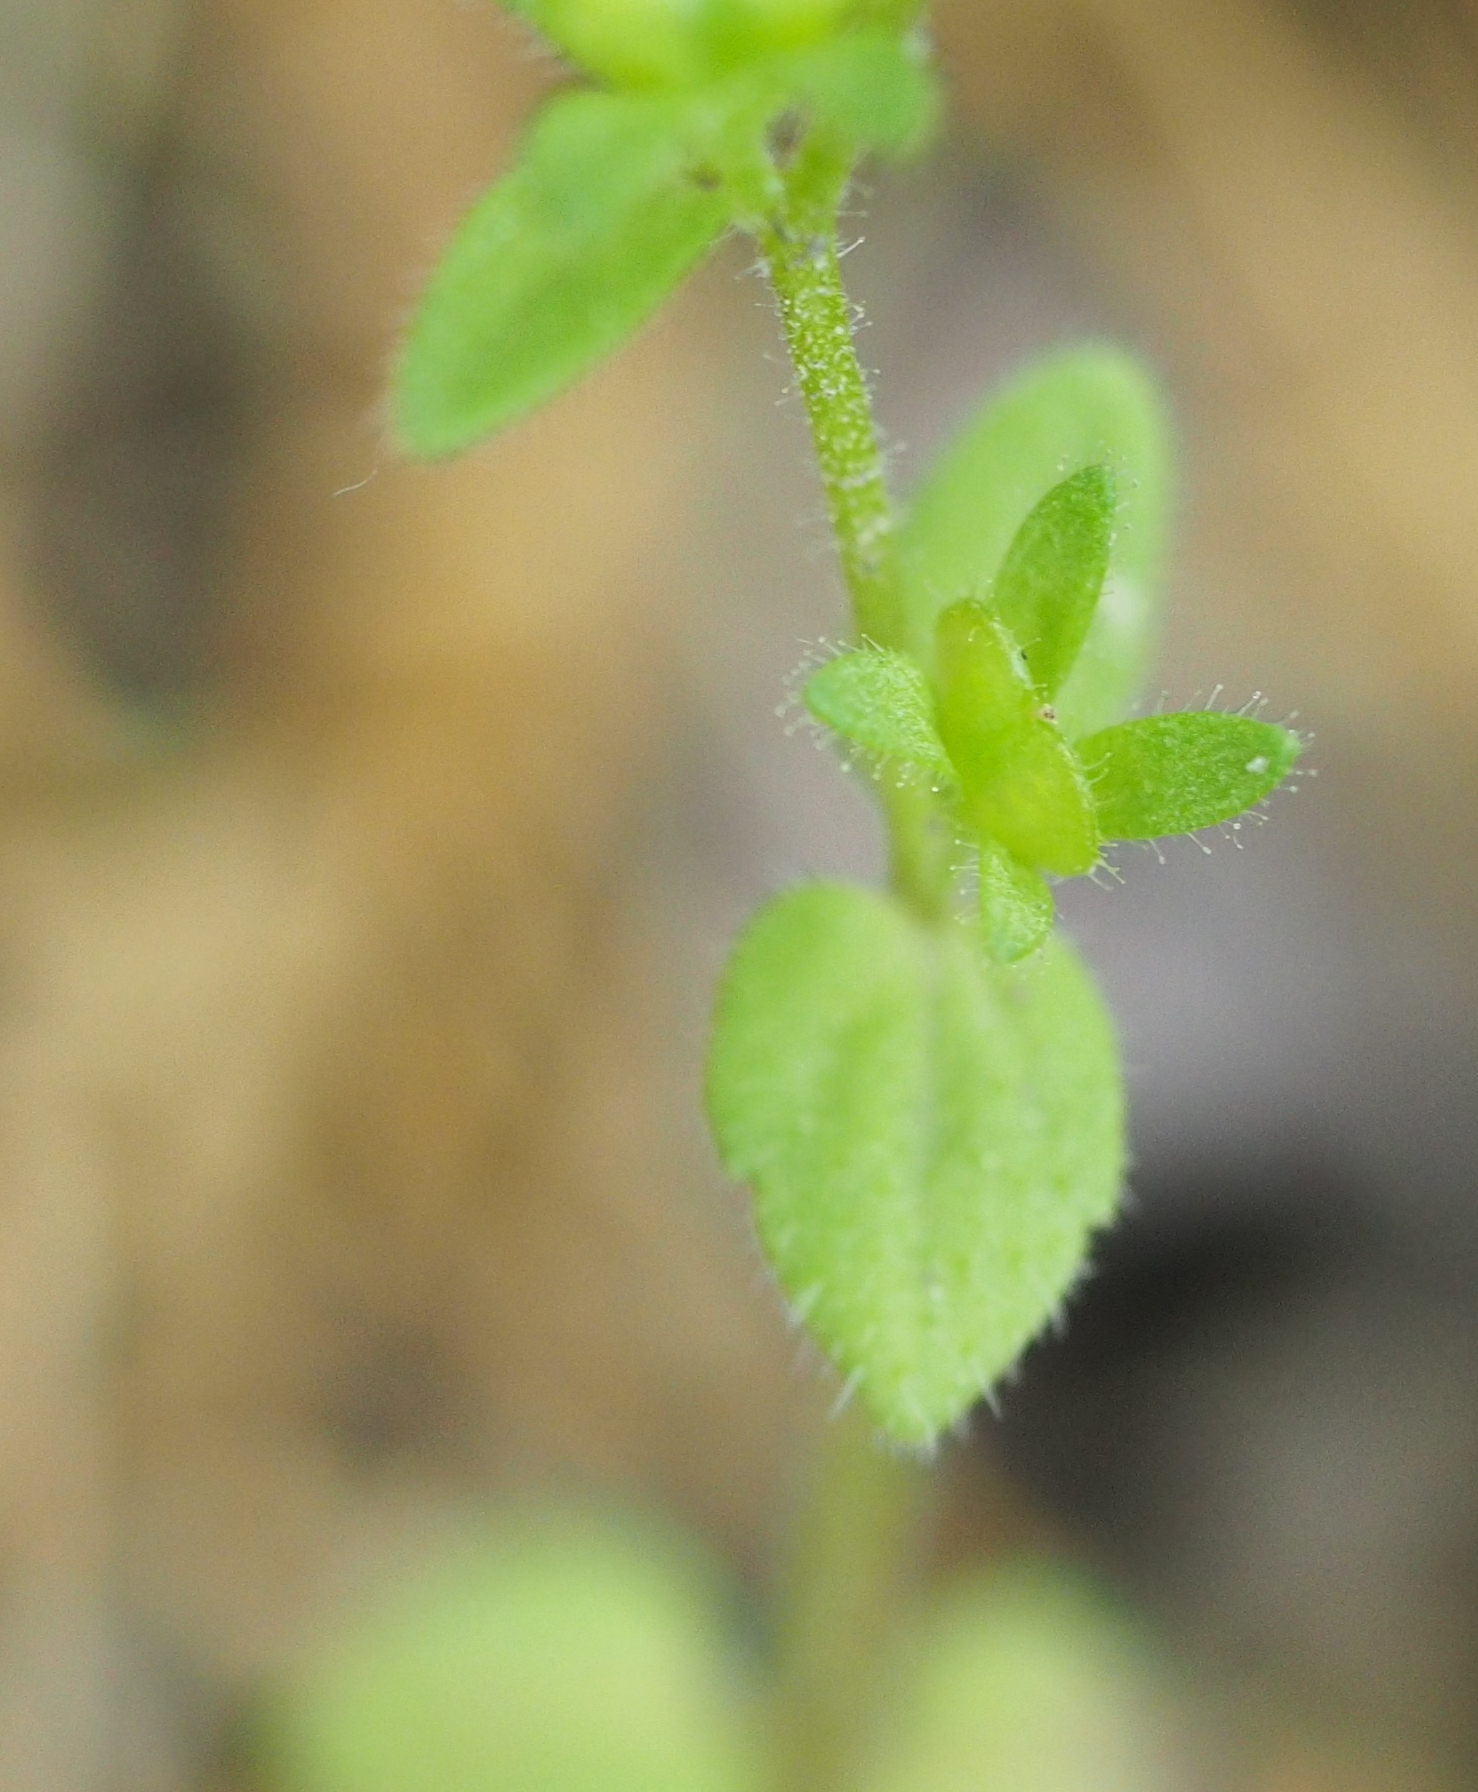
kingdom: Plantae
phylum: Tracheophyta
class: Magnoliopsida
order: Lamiales
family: Plantaginaceae
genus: Veronica
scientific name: Veronica arvensis
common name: Corn speedwell
